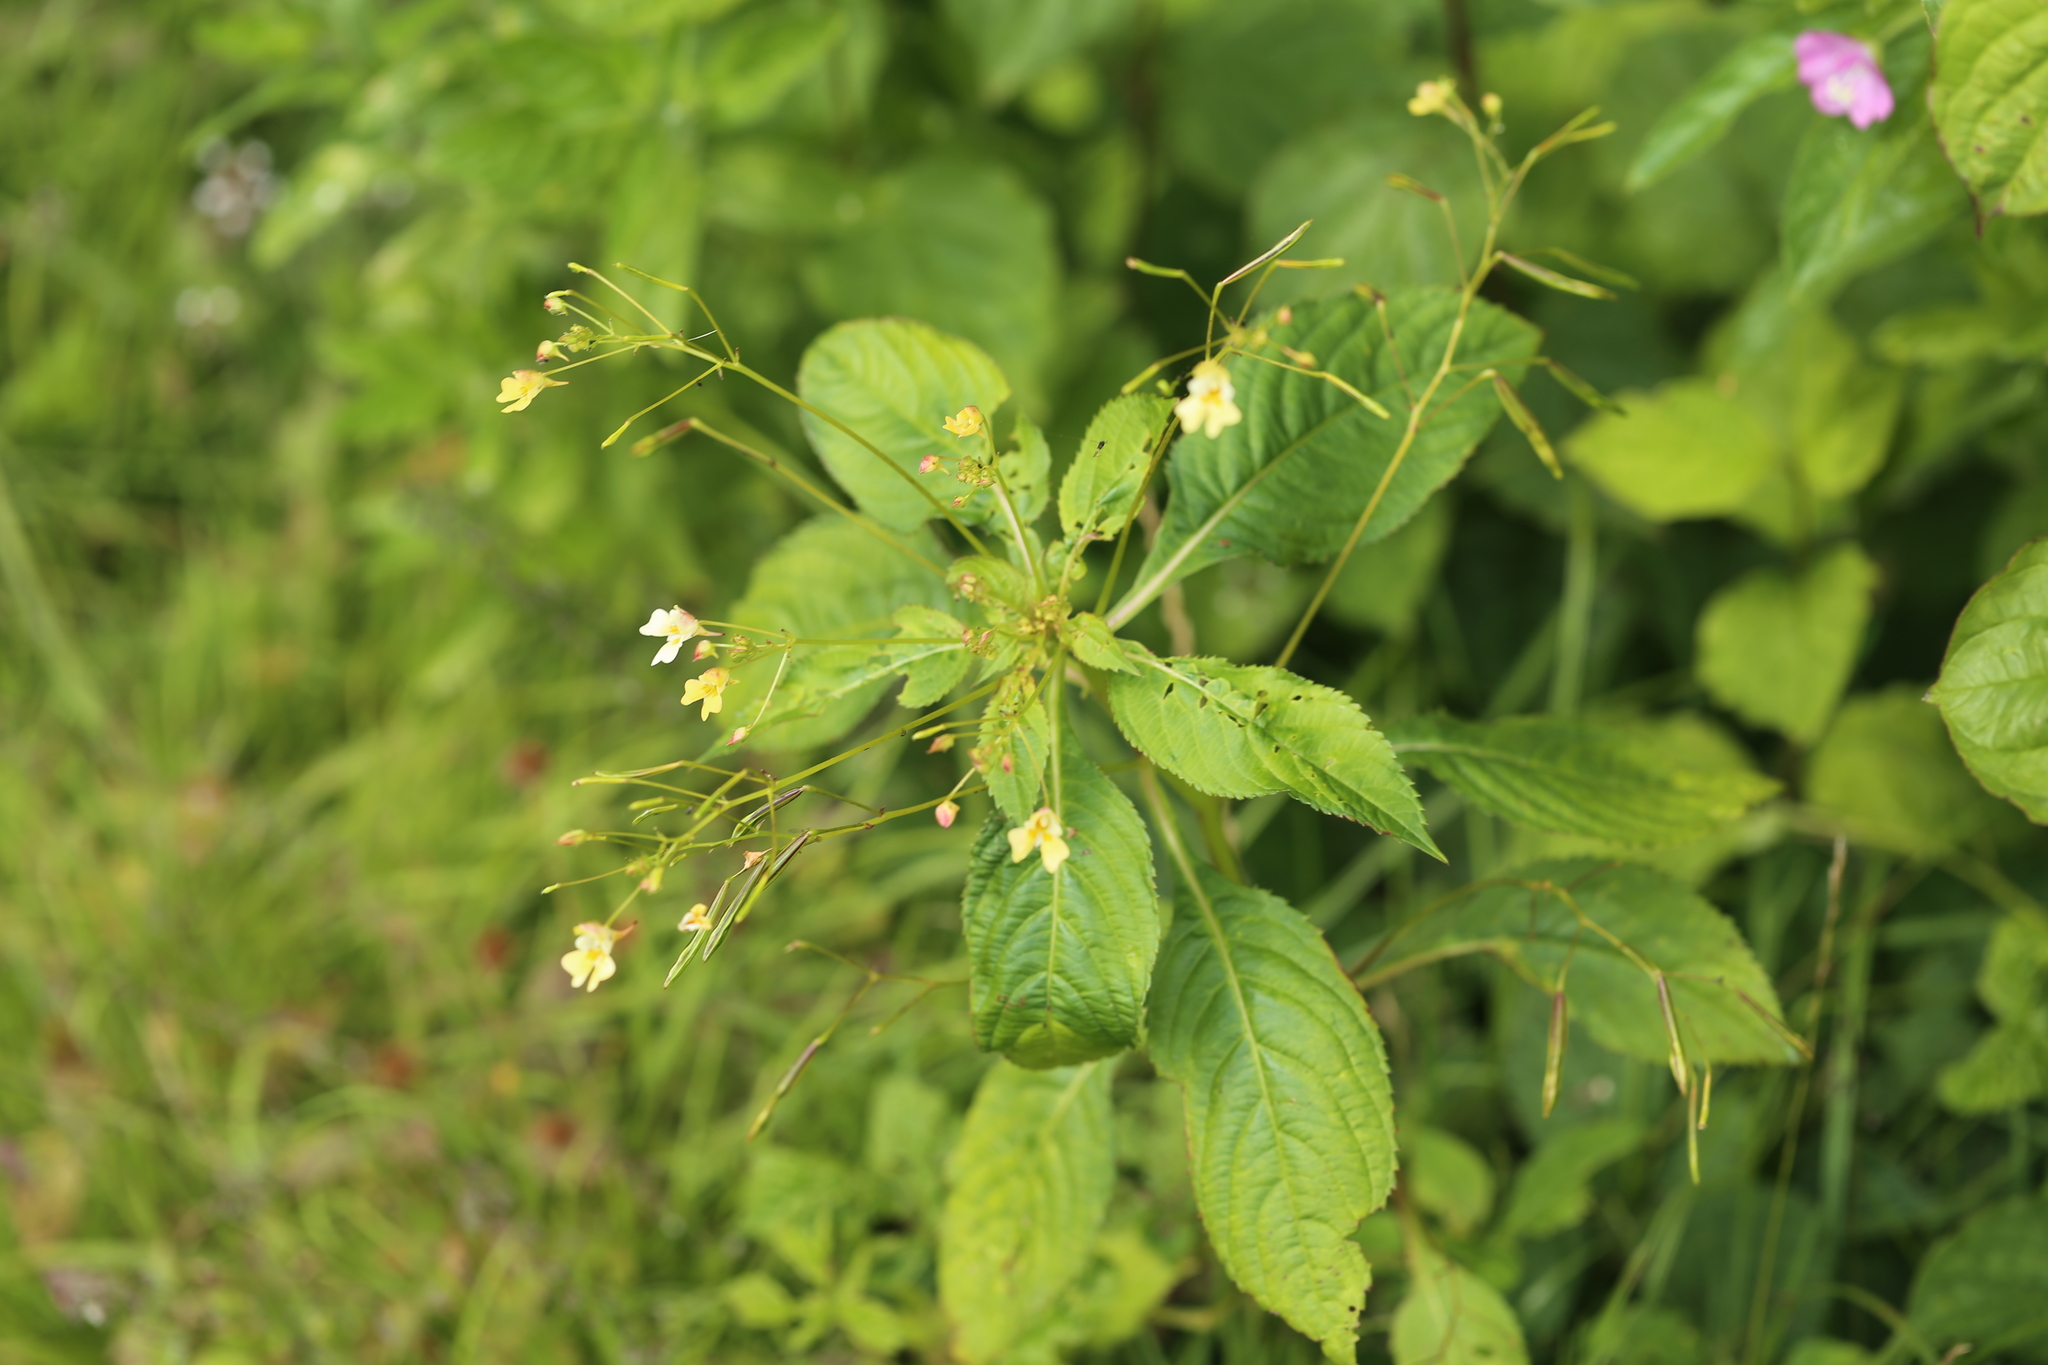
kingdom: Plantae
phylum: Tracheophyta
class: Magnoliopsida
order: Ericales
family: Balsaminaceae
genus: Impatiens
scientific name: Impatiens parviflora
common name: Small balsam
